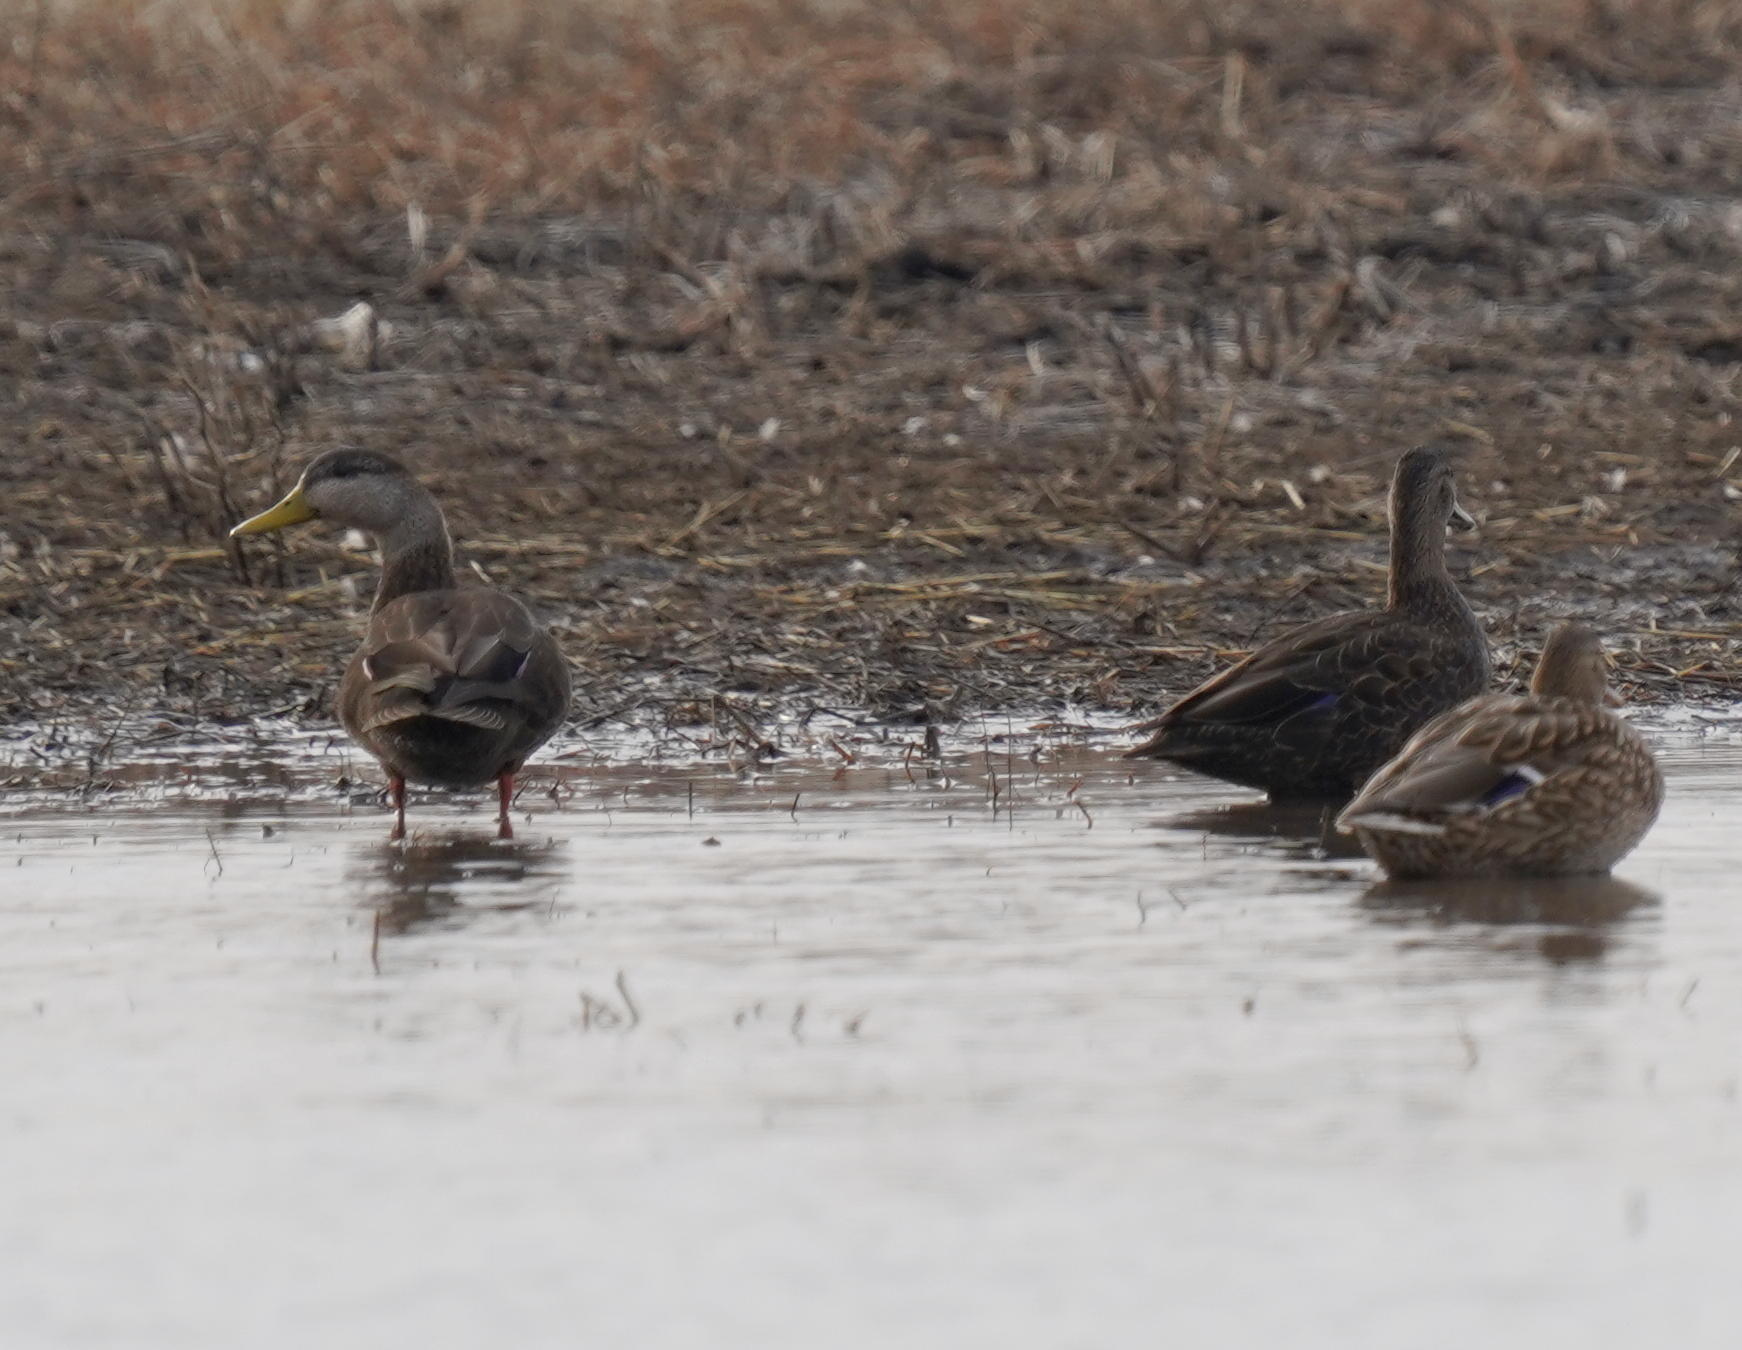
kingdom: Animalia
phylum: Chordata
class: Aves
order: Anseriformes
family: Anatidae
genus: Anas
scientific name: Anas rubripes
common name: American black duck
